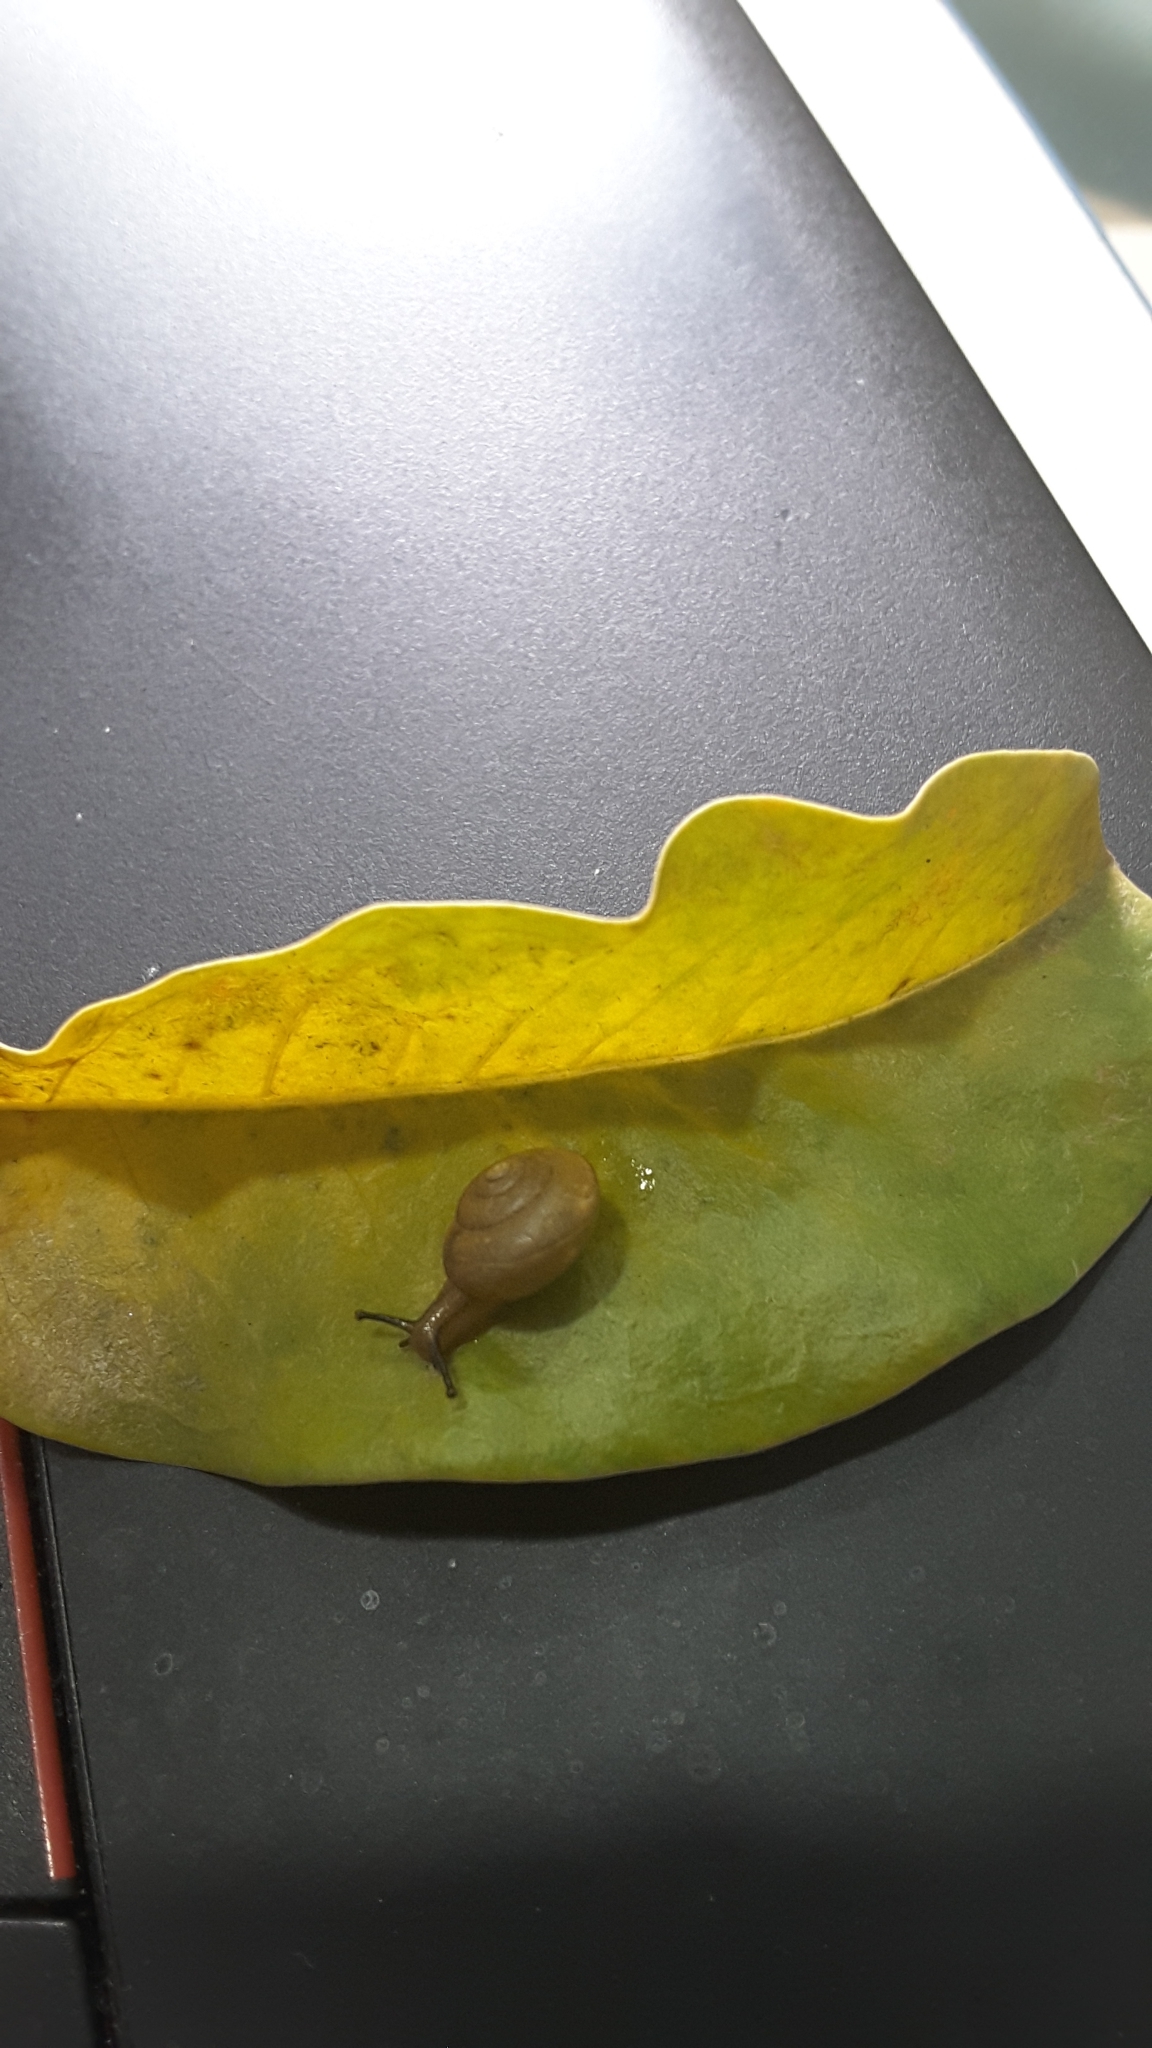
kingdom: Animalia
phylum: Mollusca
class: Gastropoda
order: Stylommatophora
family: Camaenidae
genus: Bradybaena
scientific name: Bradybaena similaris
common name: Asian trampsnail
